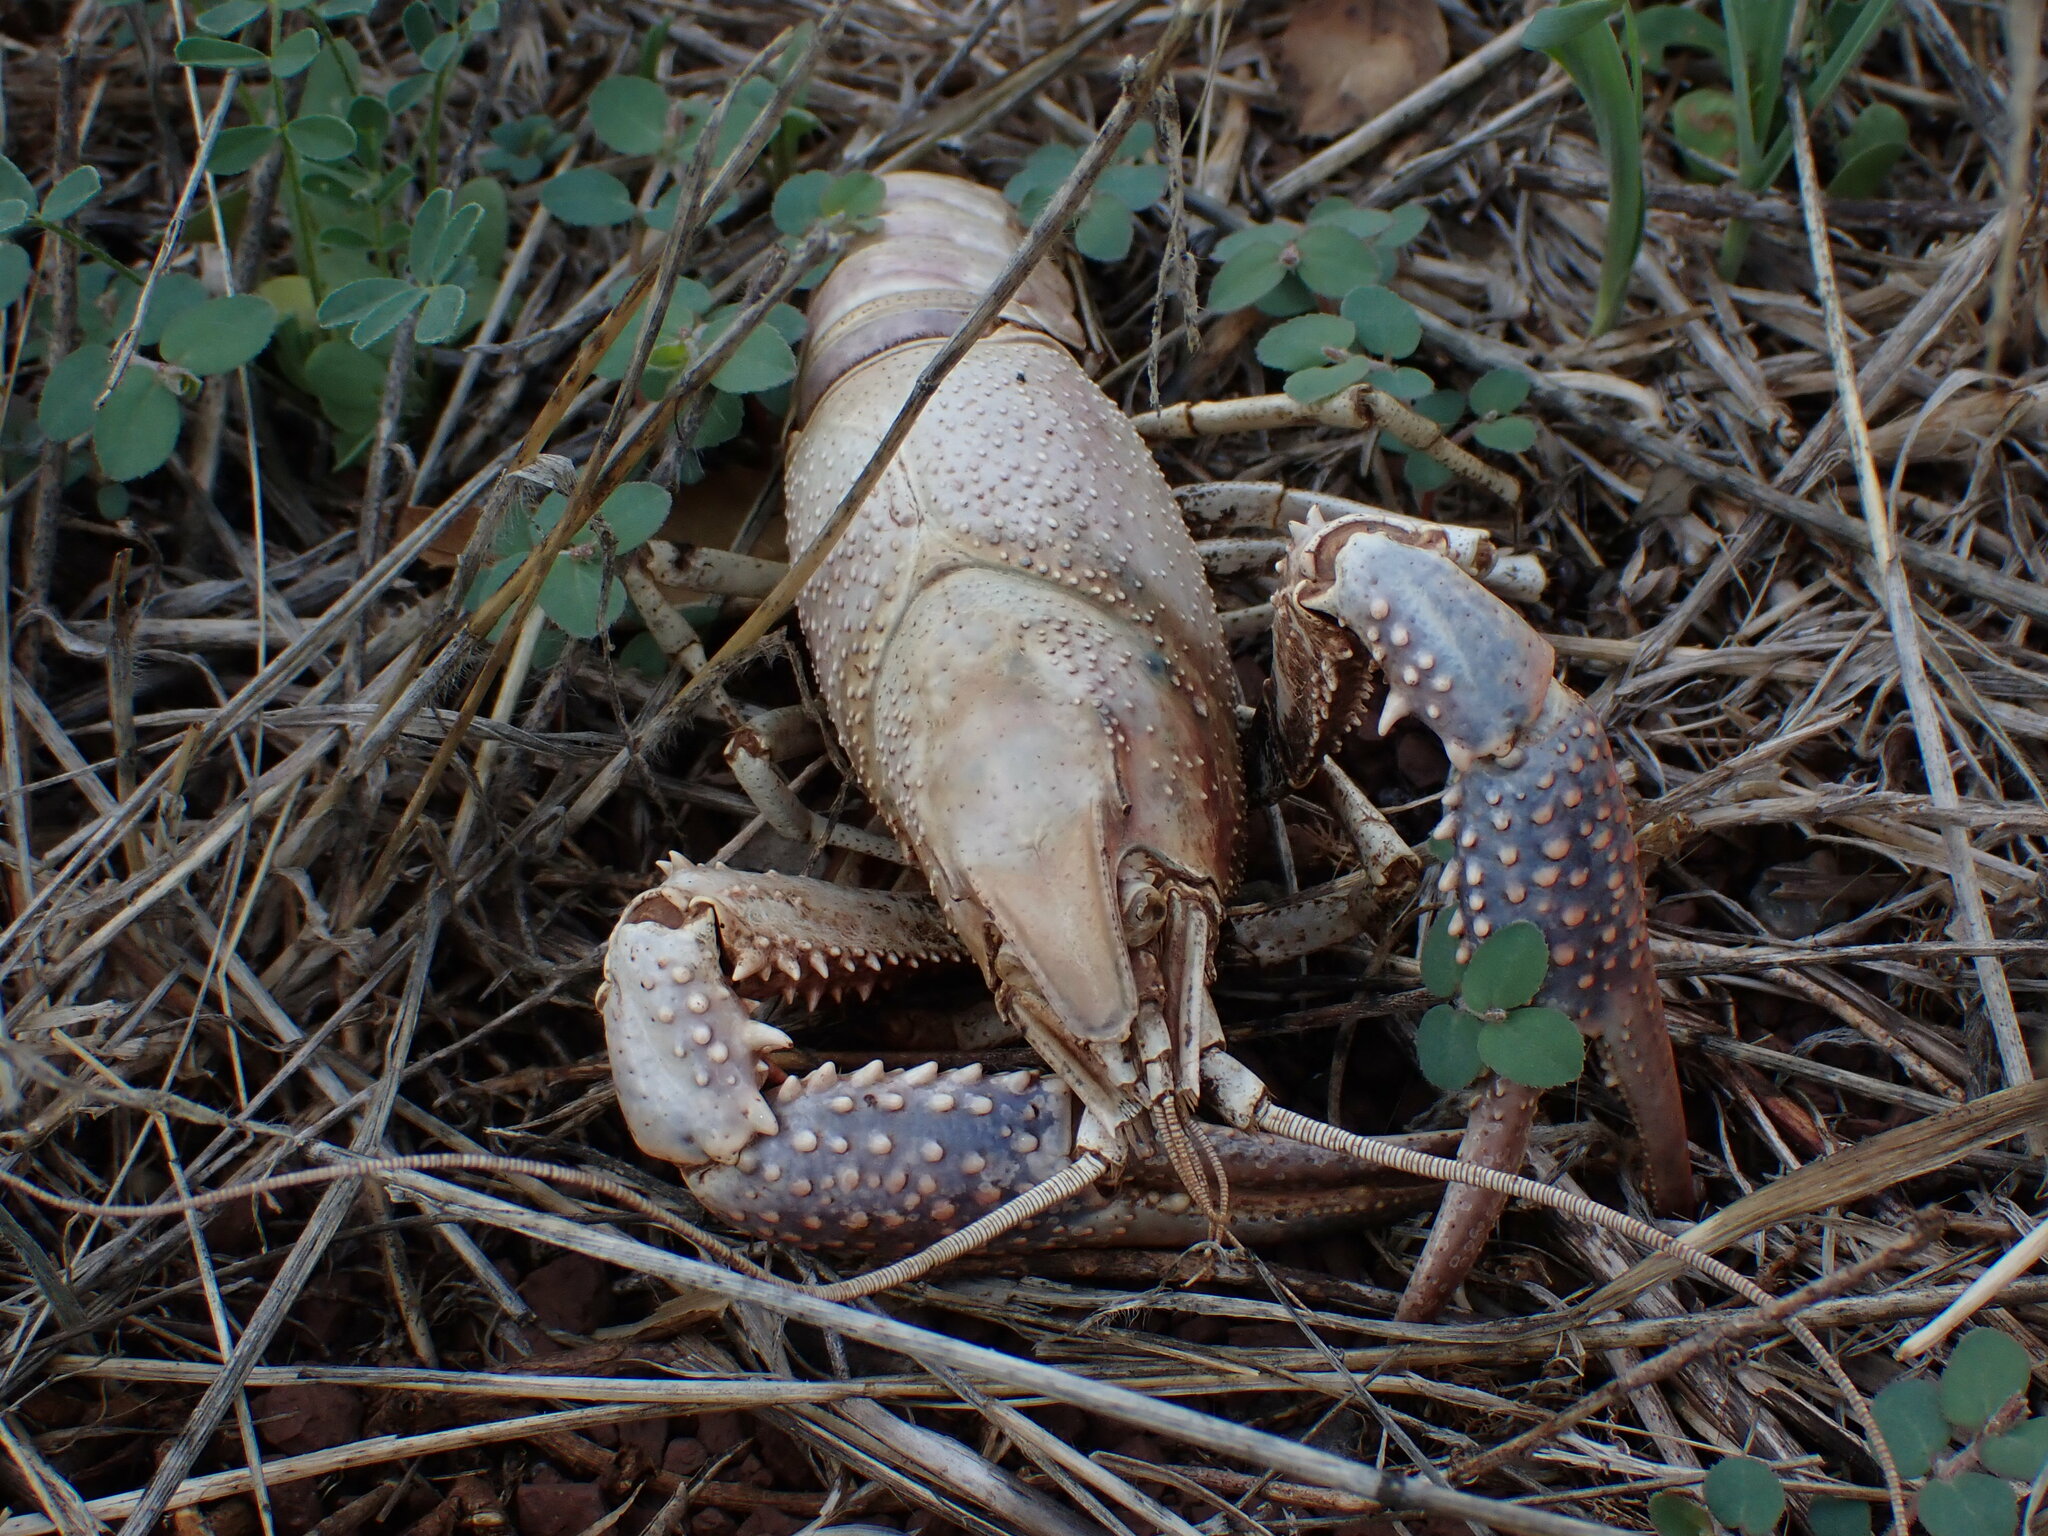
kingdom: Animalia
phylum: Arthropoda
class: Malacostraca
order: Decapoda
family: Cambaridae
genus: Procambarus
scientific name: Procambarus clarkii
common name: Red swamp crayfish
